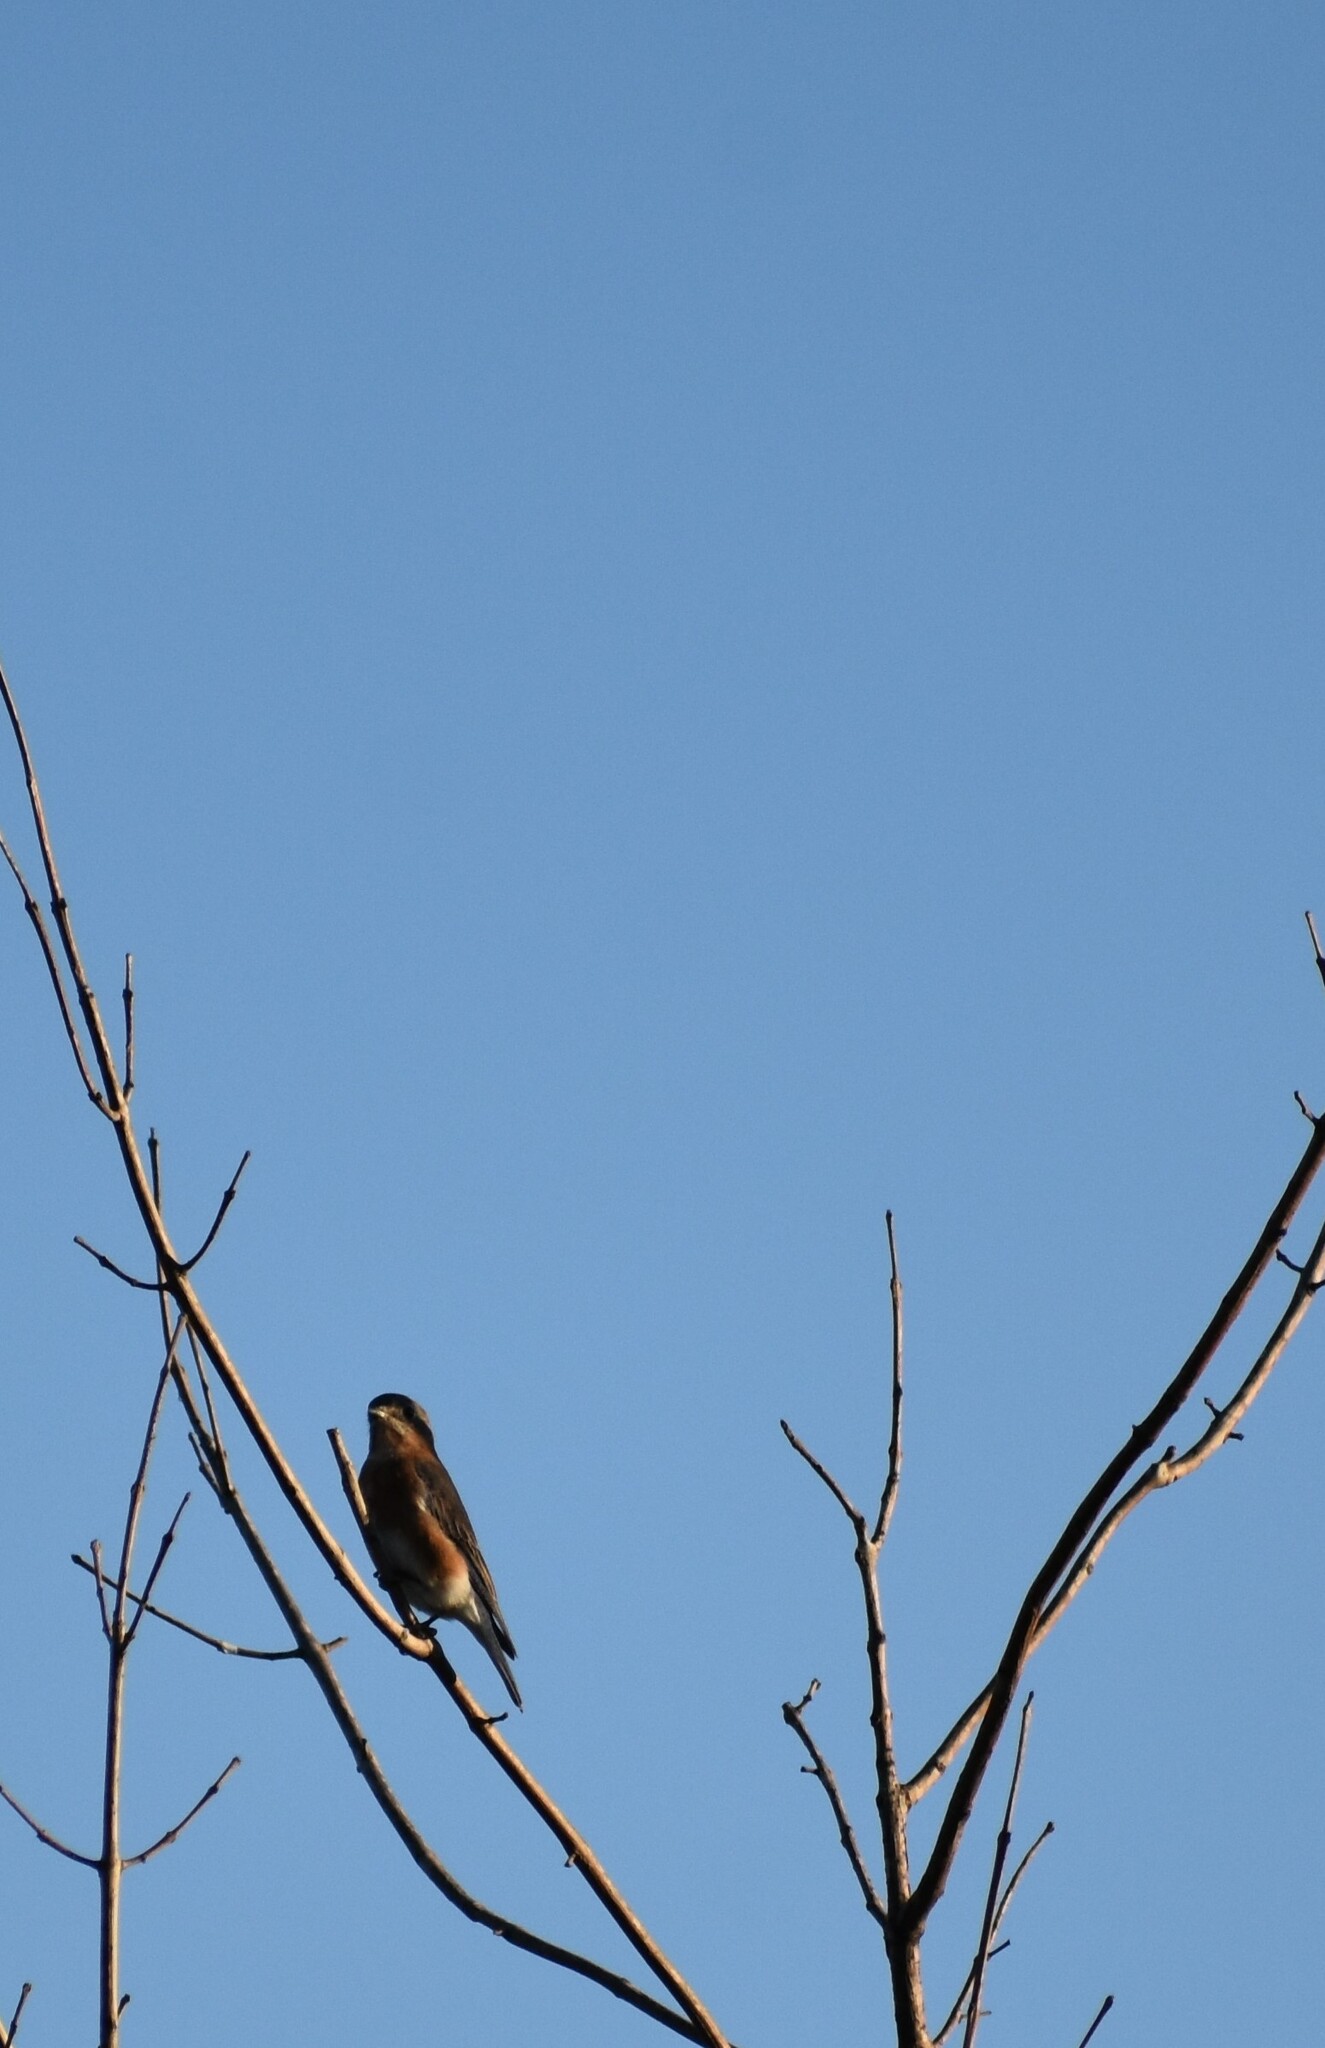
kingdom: Animalia
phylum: Chordata
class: Aves
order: Passeriformes
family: Turdidae
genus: Sialia
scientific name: Sialia sialis
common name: Eastern bluebird
